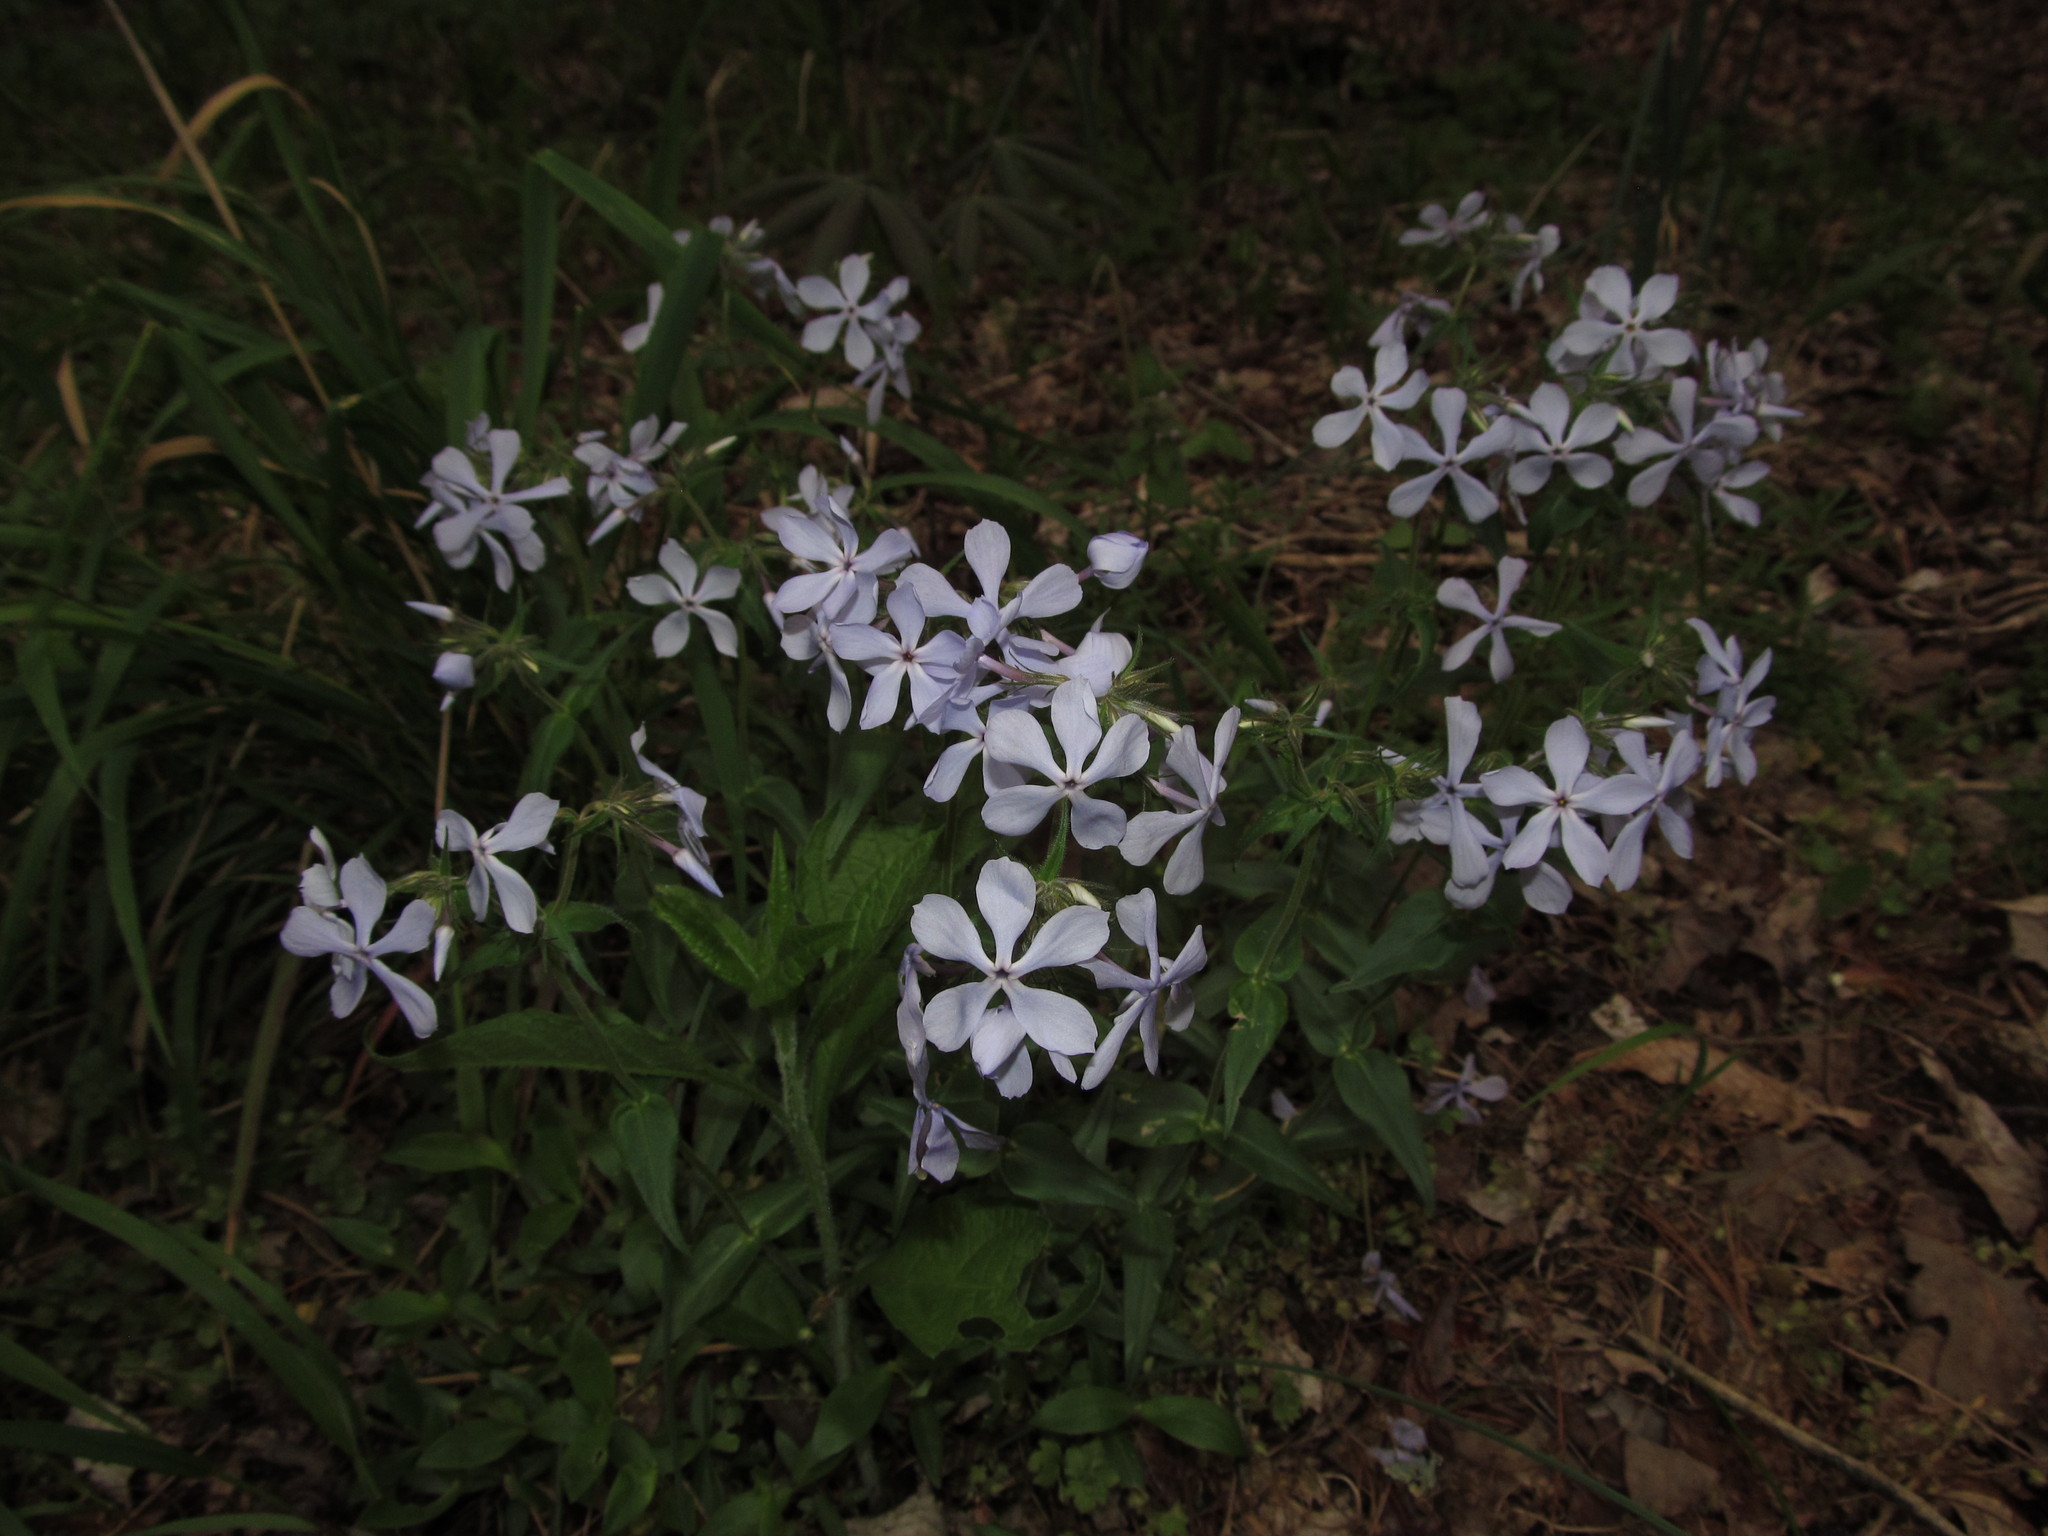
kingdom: Plantae
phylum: Tracheophyta
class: Magnoliopsida
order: Ericales
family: Polemoniaceae
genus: Phlox
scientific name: Phlox divaricata
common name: Blue phlox
